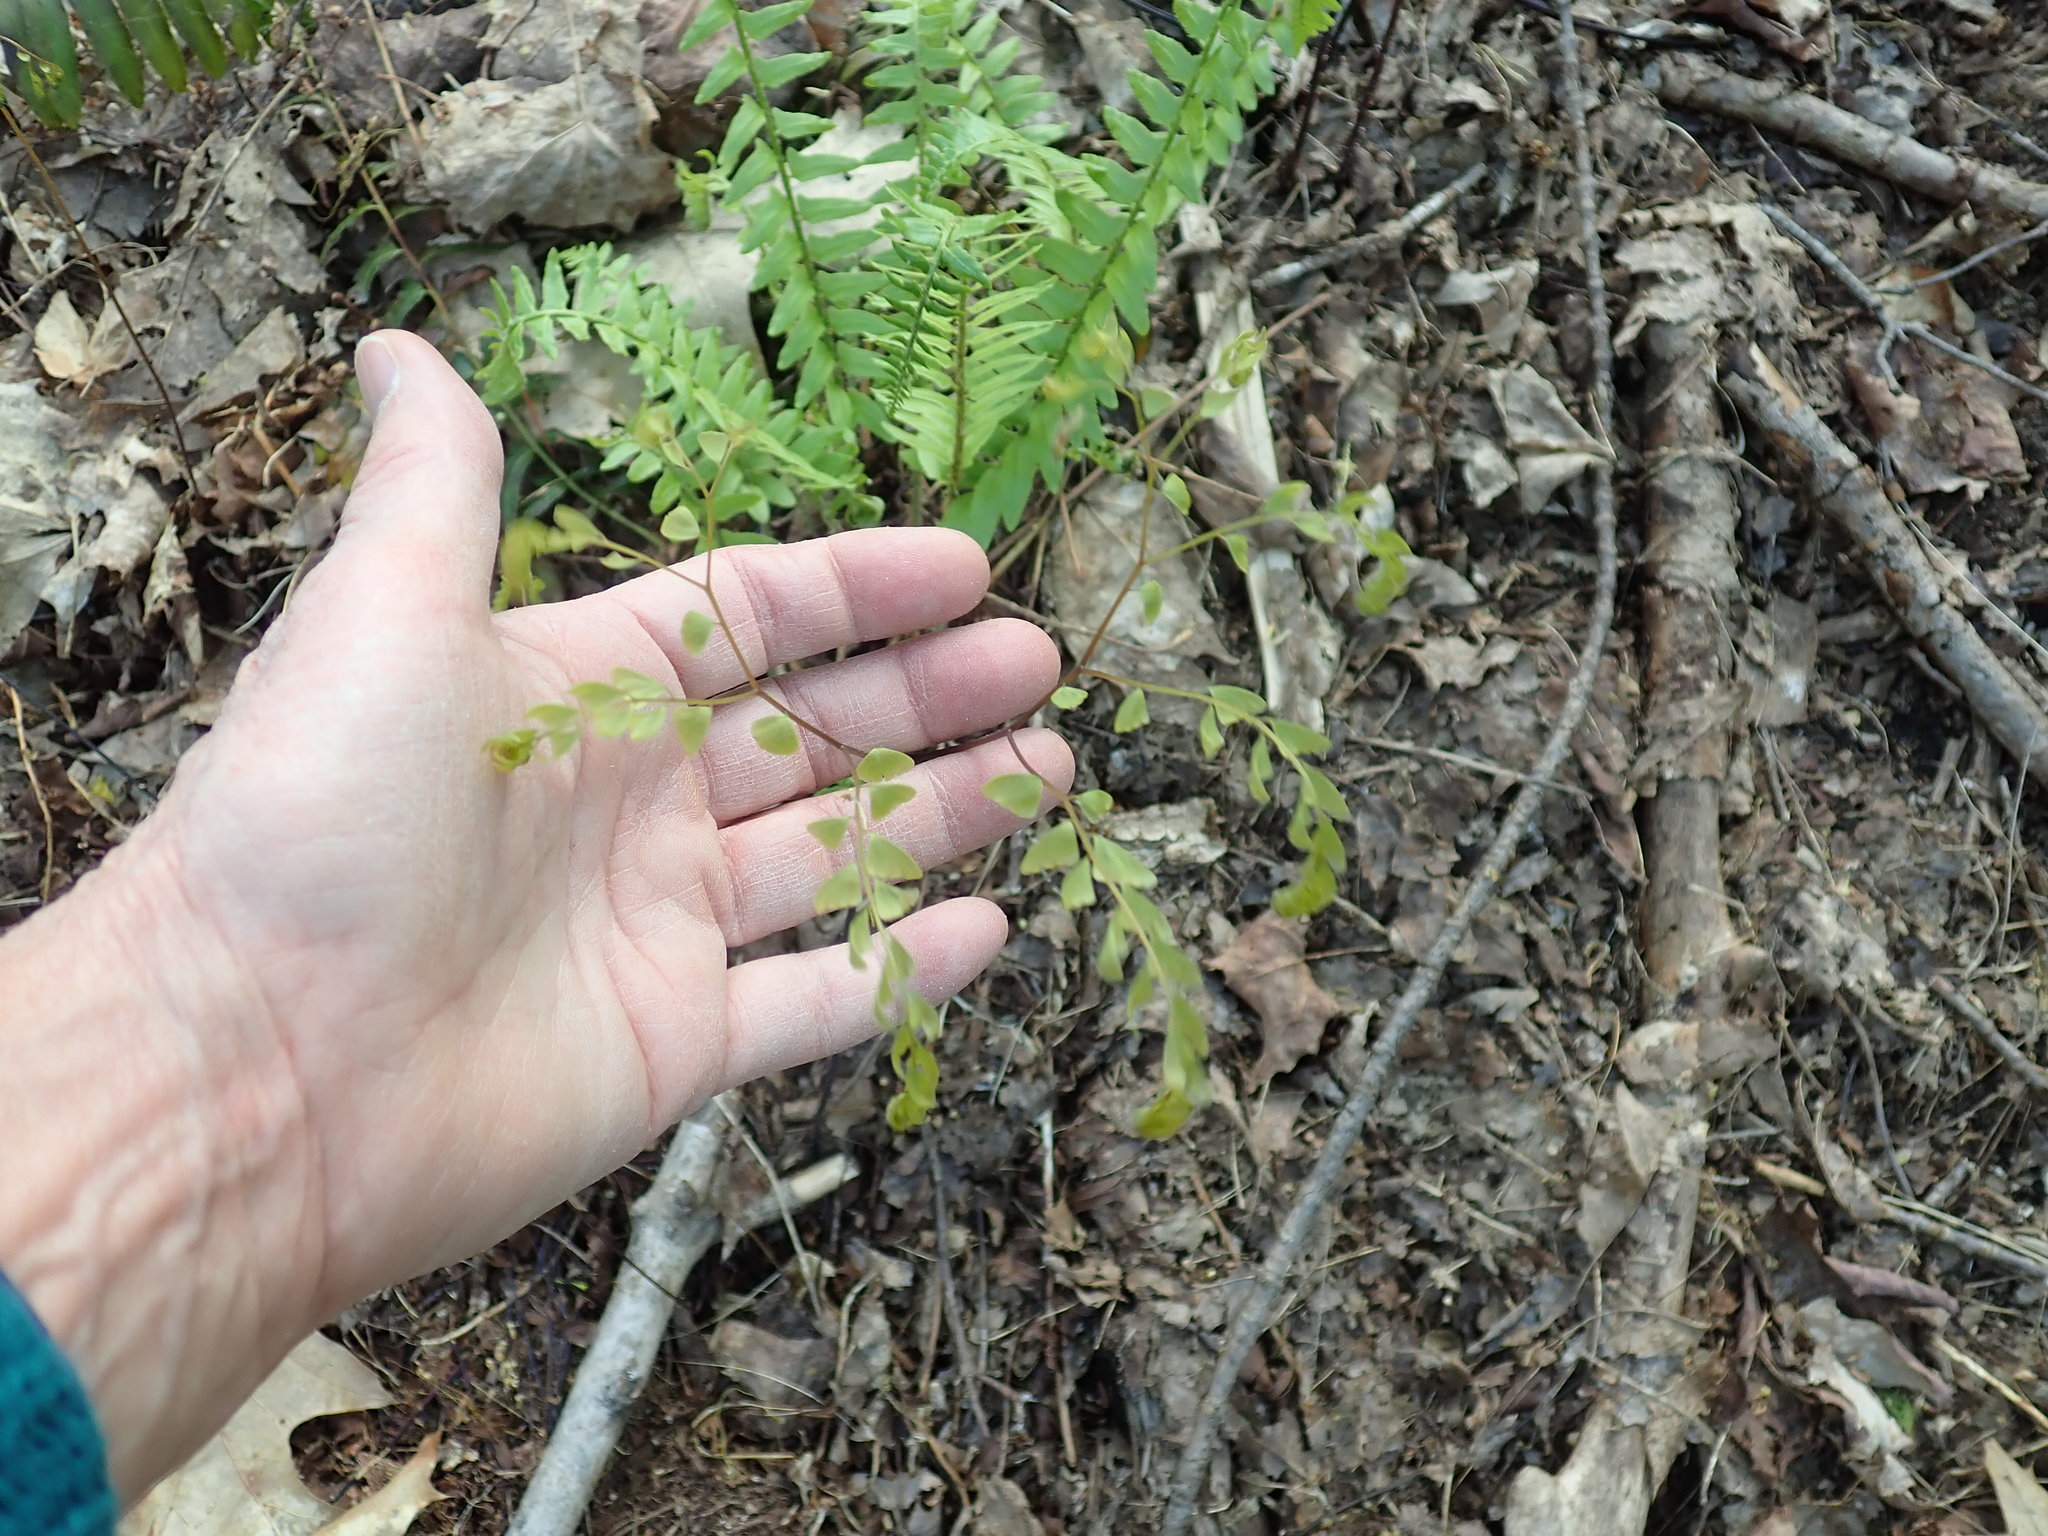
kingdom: Plantae
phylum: Tracheophyta
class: Polypodiopsida
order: Polypodiales
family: Pteridaceae
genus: Adiantum
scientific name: Adiantum pedatum
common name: Five-finger fern
